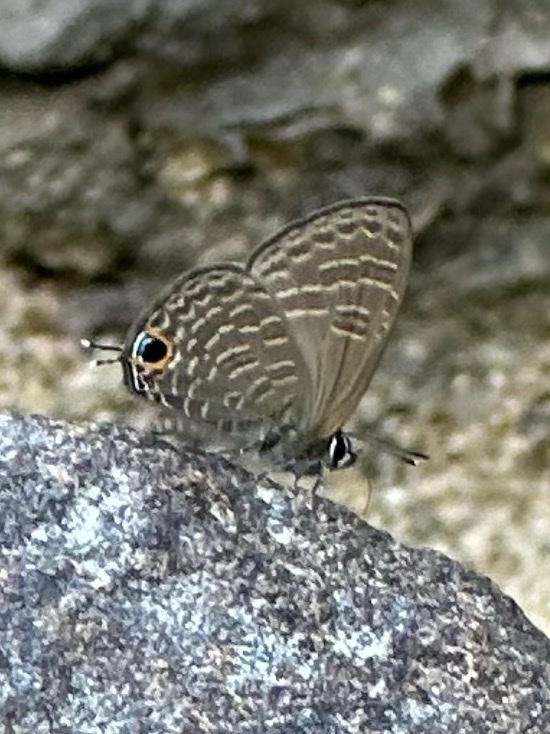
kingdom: Animalia
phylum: Arthropoda
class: Insecta
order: Lepidoptera
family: Lycaenidae
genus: Nacaduba
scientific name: Nacaduba hermus
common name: Pale four-line blue
